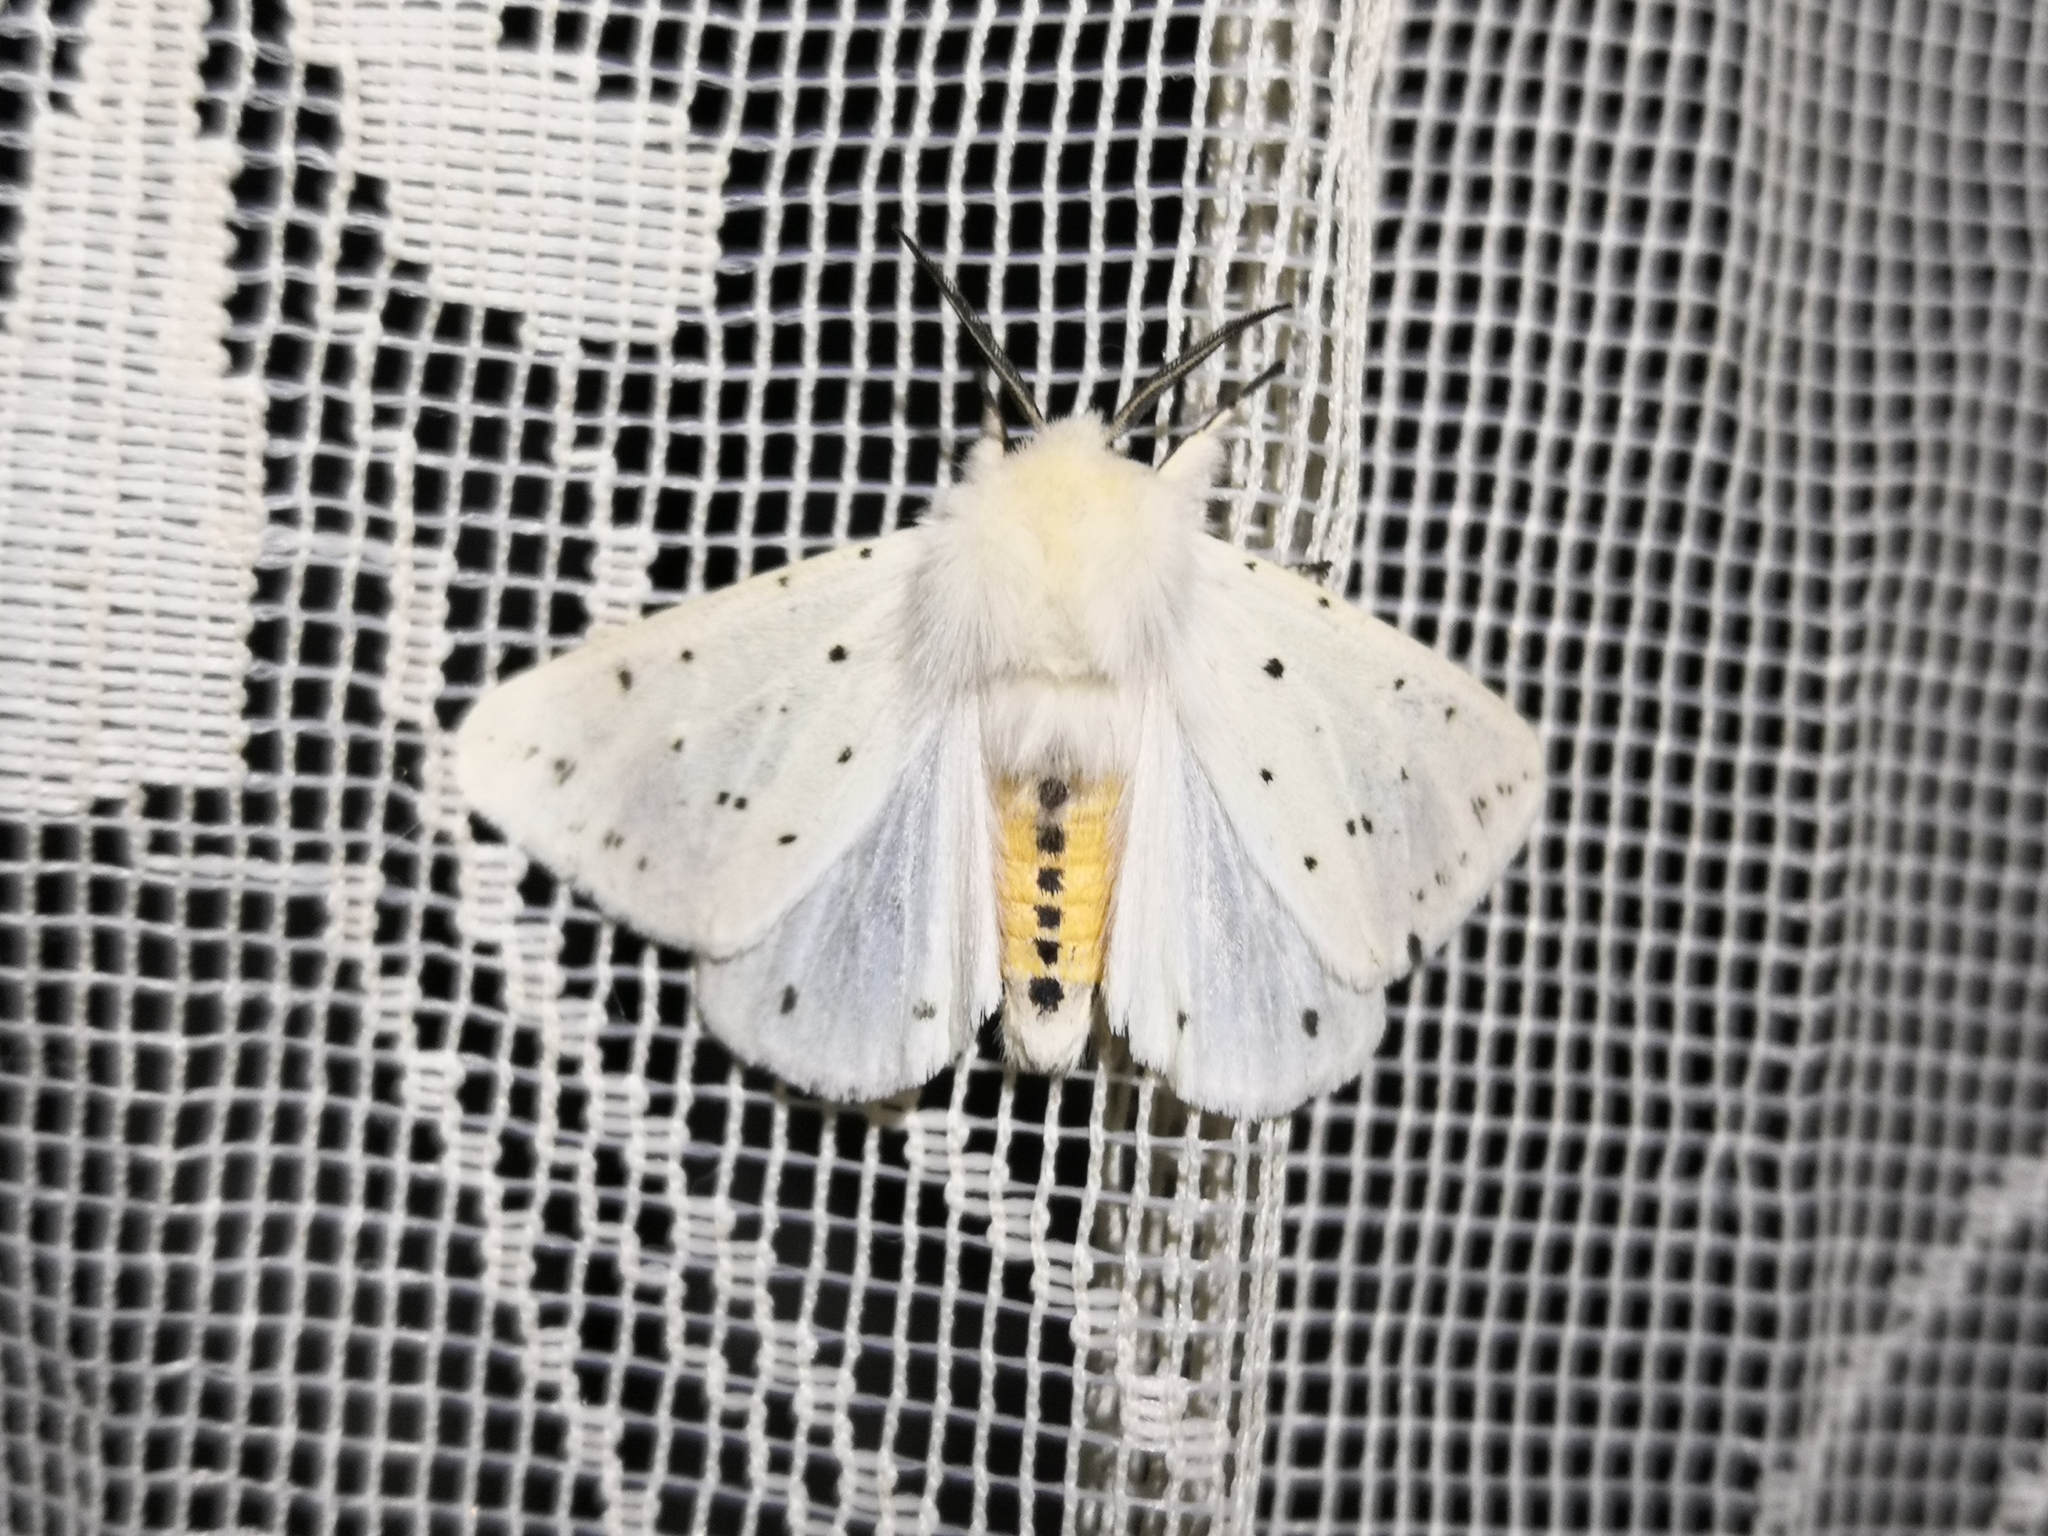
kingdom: Animalia
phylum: Arthropoda
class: Insecta
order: Lepidoptera
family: Erebidae
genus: Spilosoma
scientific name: Spilosoma lubricipeda
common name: White ermine
